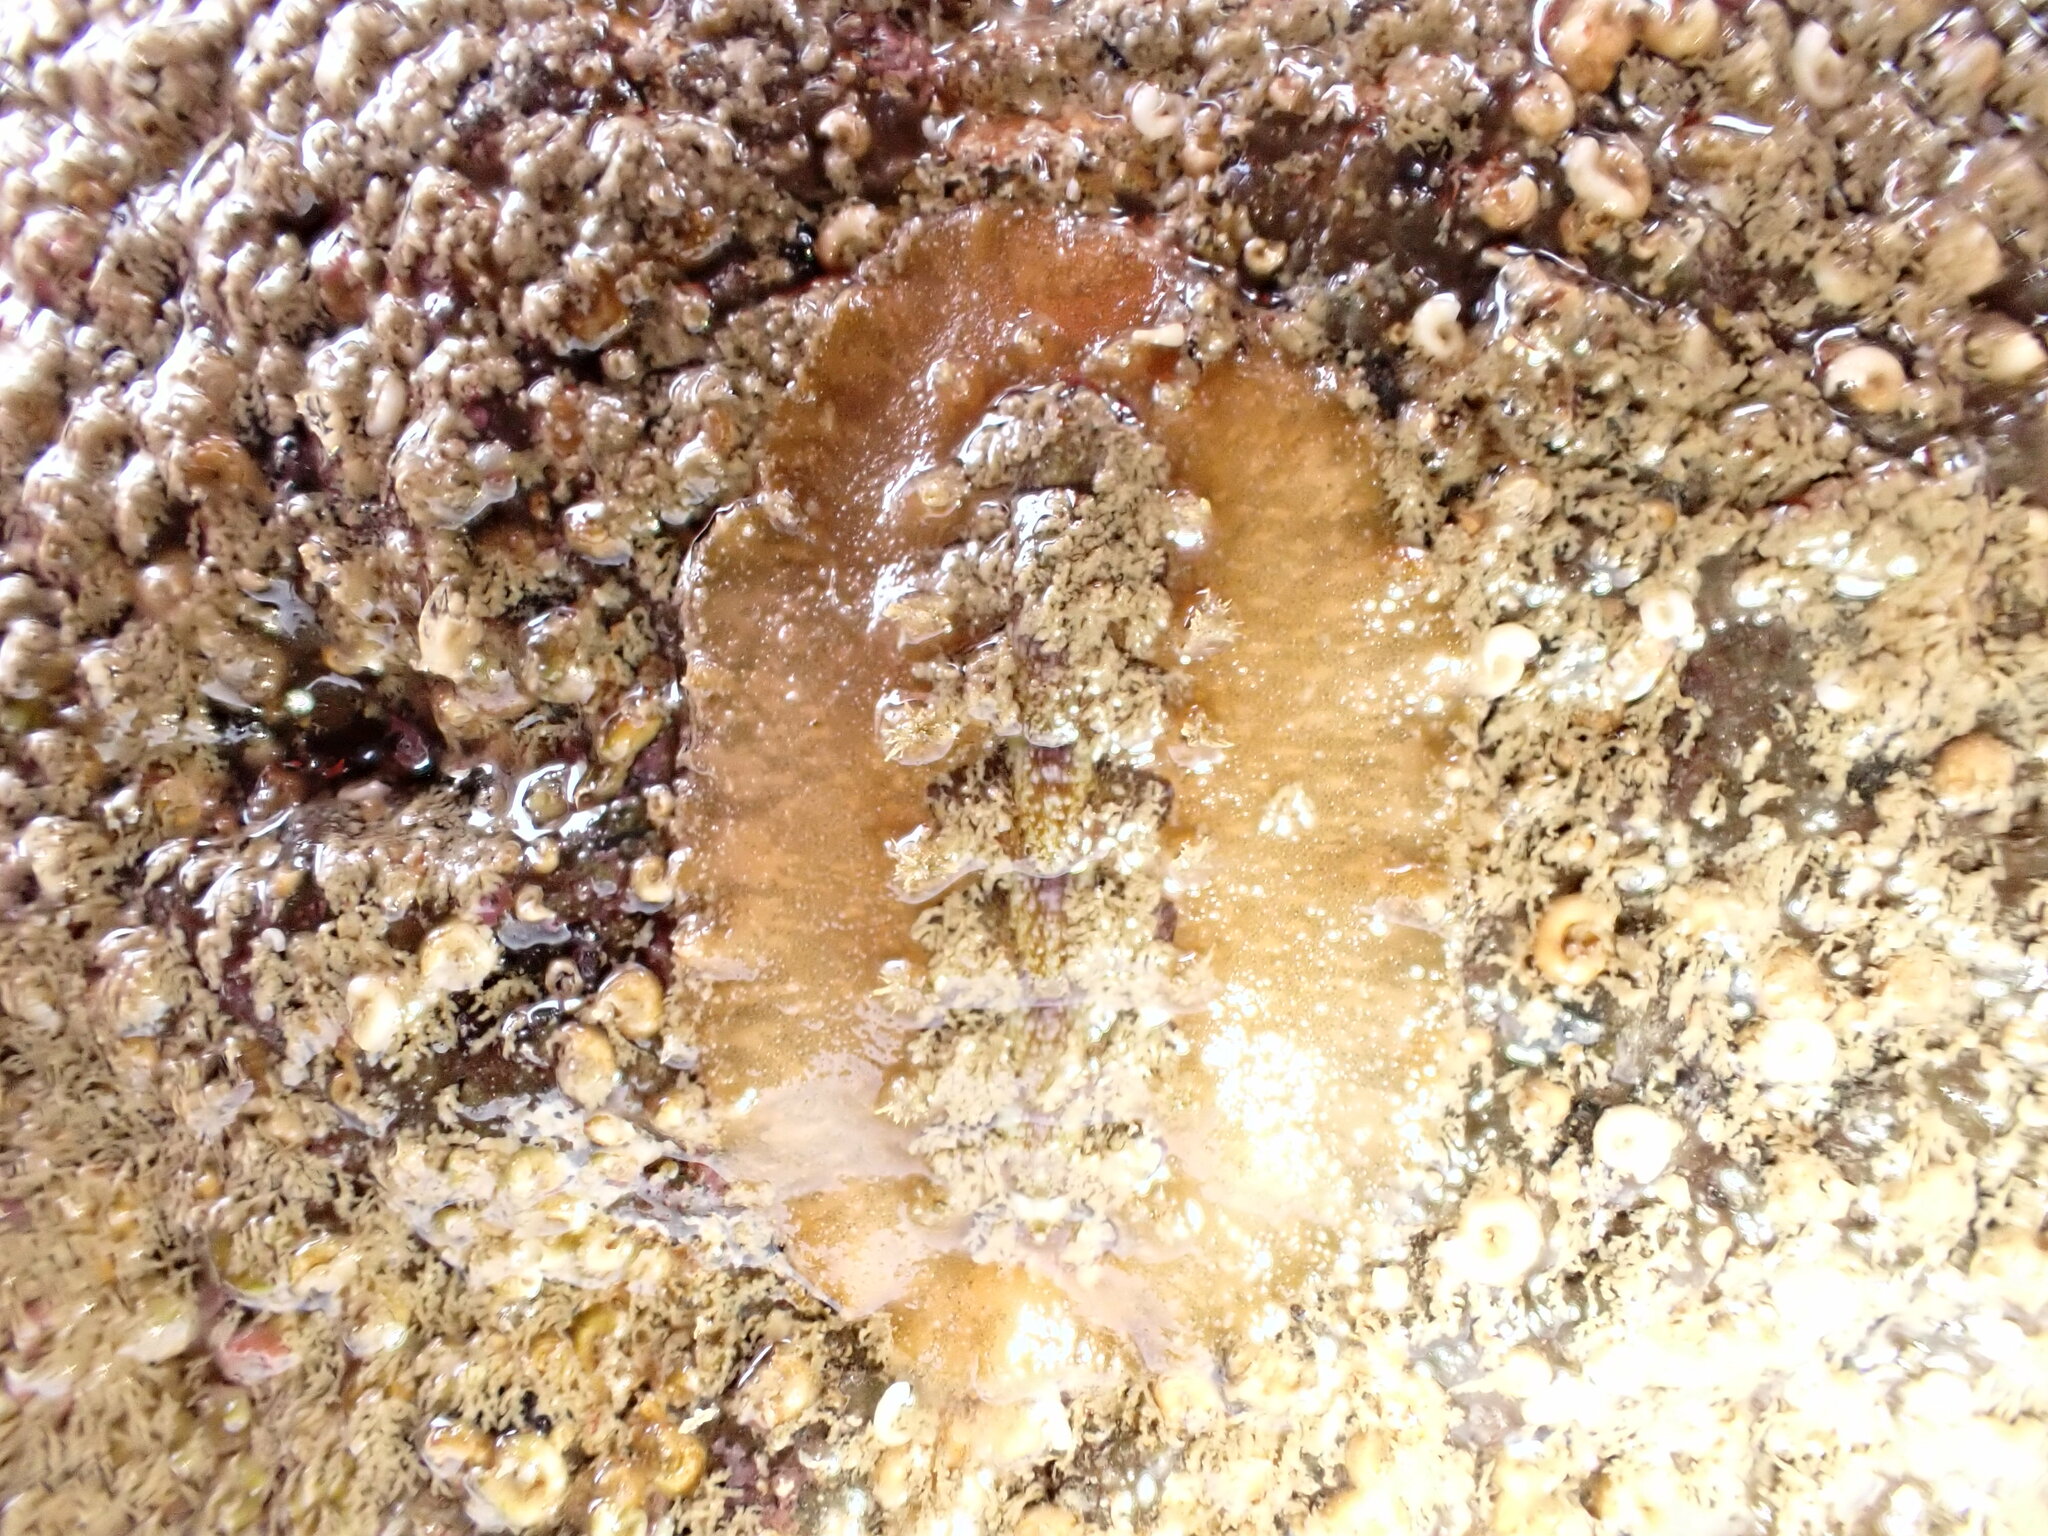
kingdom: Animalia
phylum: Mollusca
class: Polyplacophora
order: Chitonida
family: Acanthochitonidae
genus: Notoplax
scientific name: Notoplax violacea
